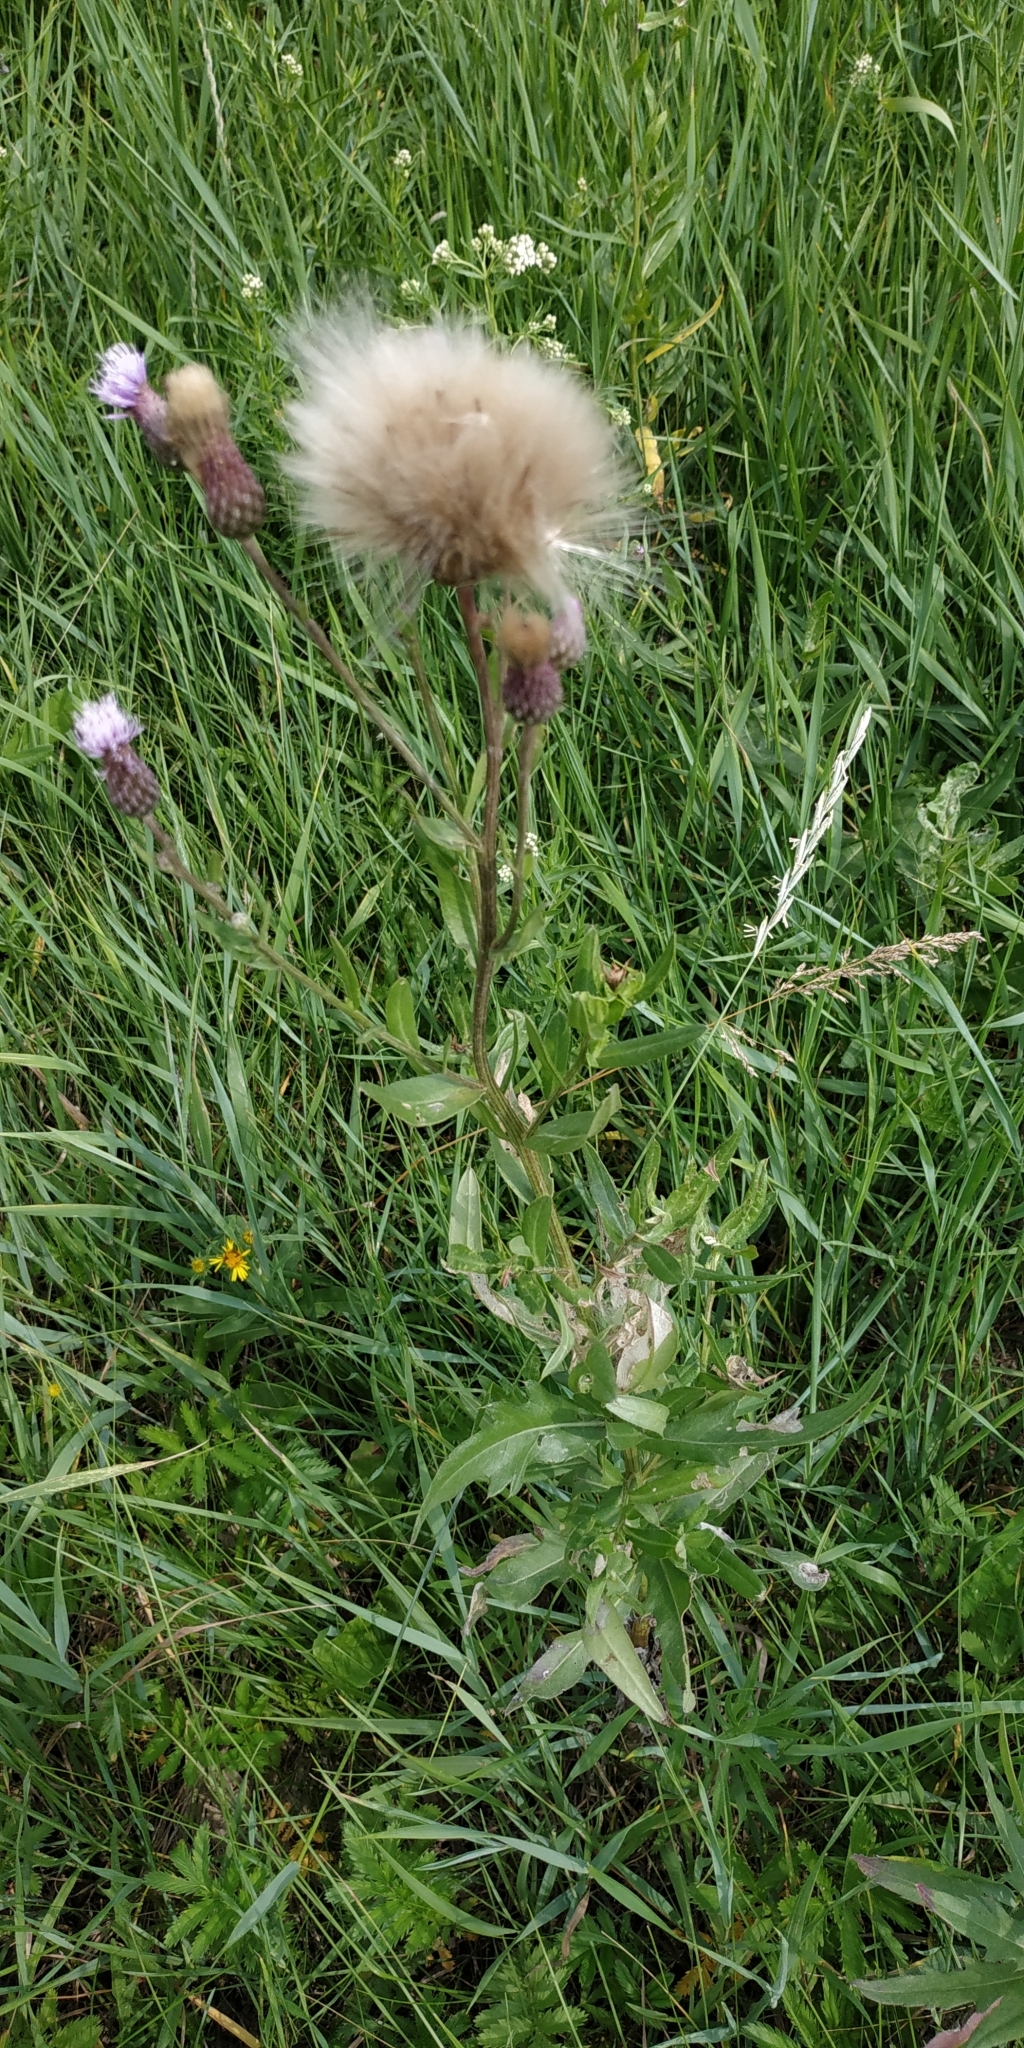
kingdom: Plantae
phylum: Tracheophyta
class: Magnoliopsida
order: Asterales
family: Asteraceae
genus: Cirsium
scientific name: Cirsium arvense
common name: Creeping thistle
